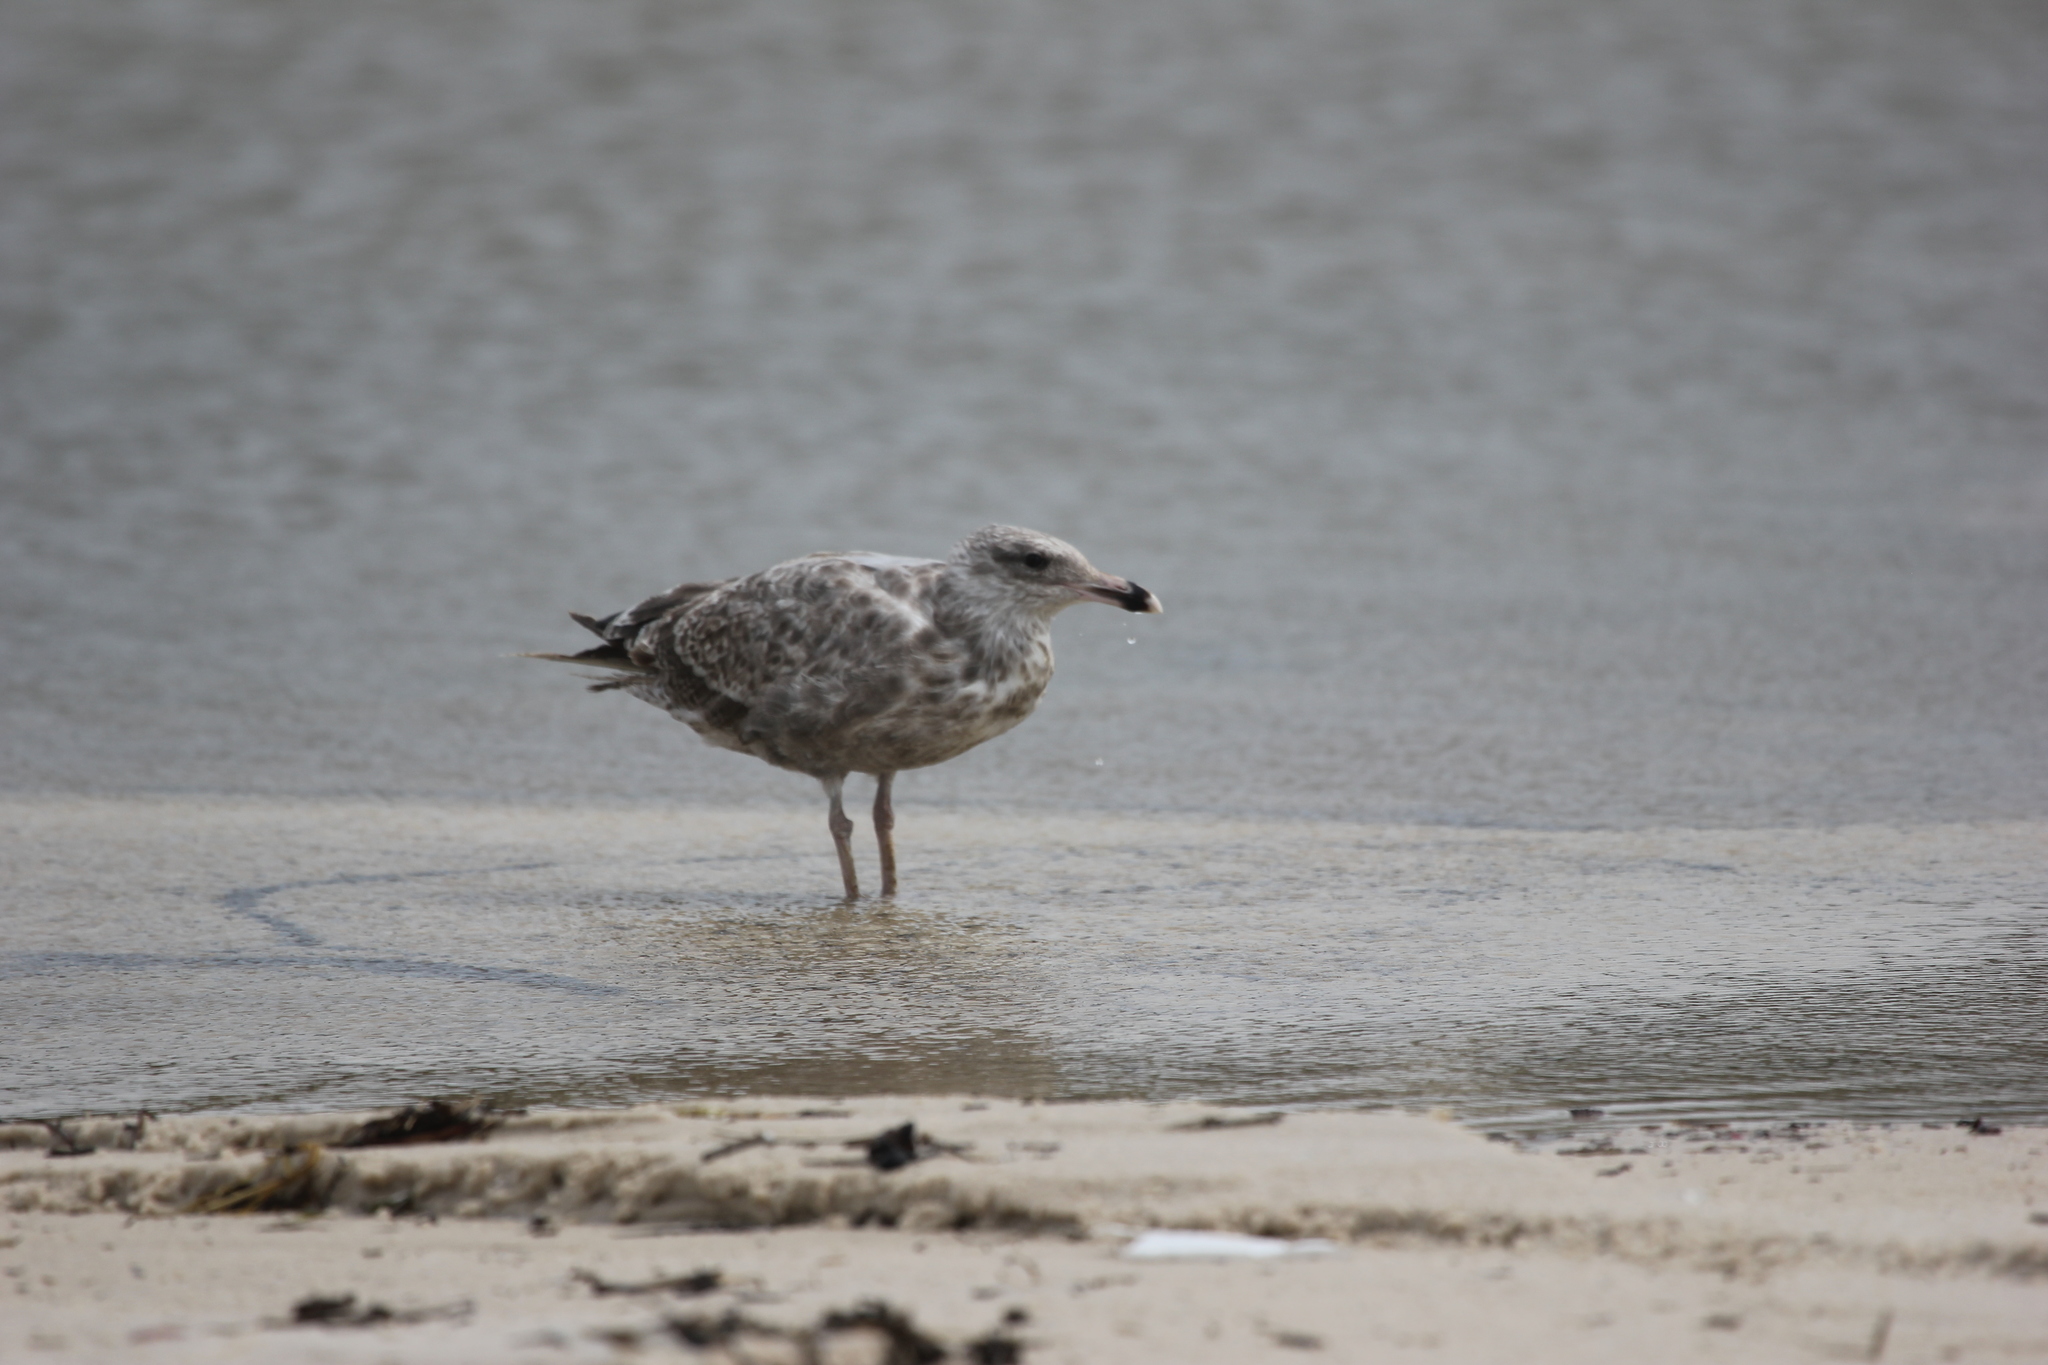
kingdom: Animalia
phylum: Chordata
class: Aves
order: Charadriiformes
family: Laridae
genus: Larus
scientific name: Larus argentatus
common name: Herring gull
